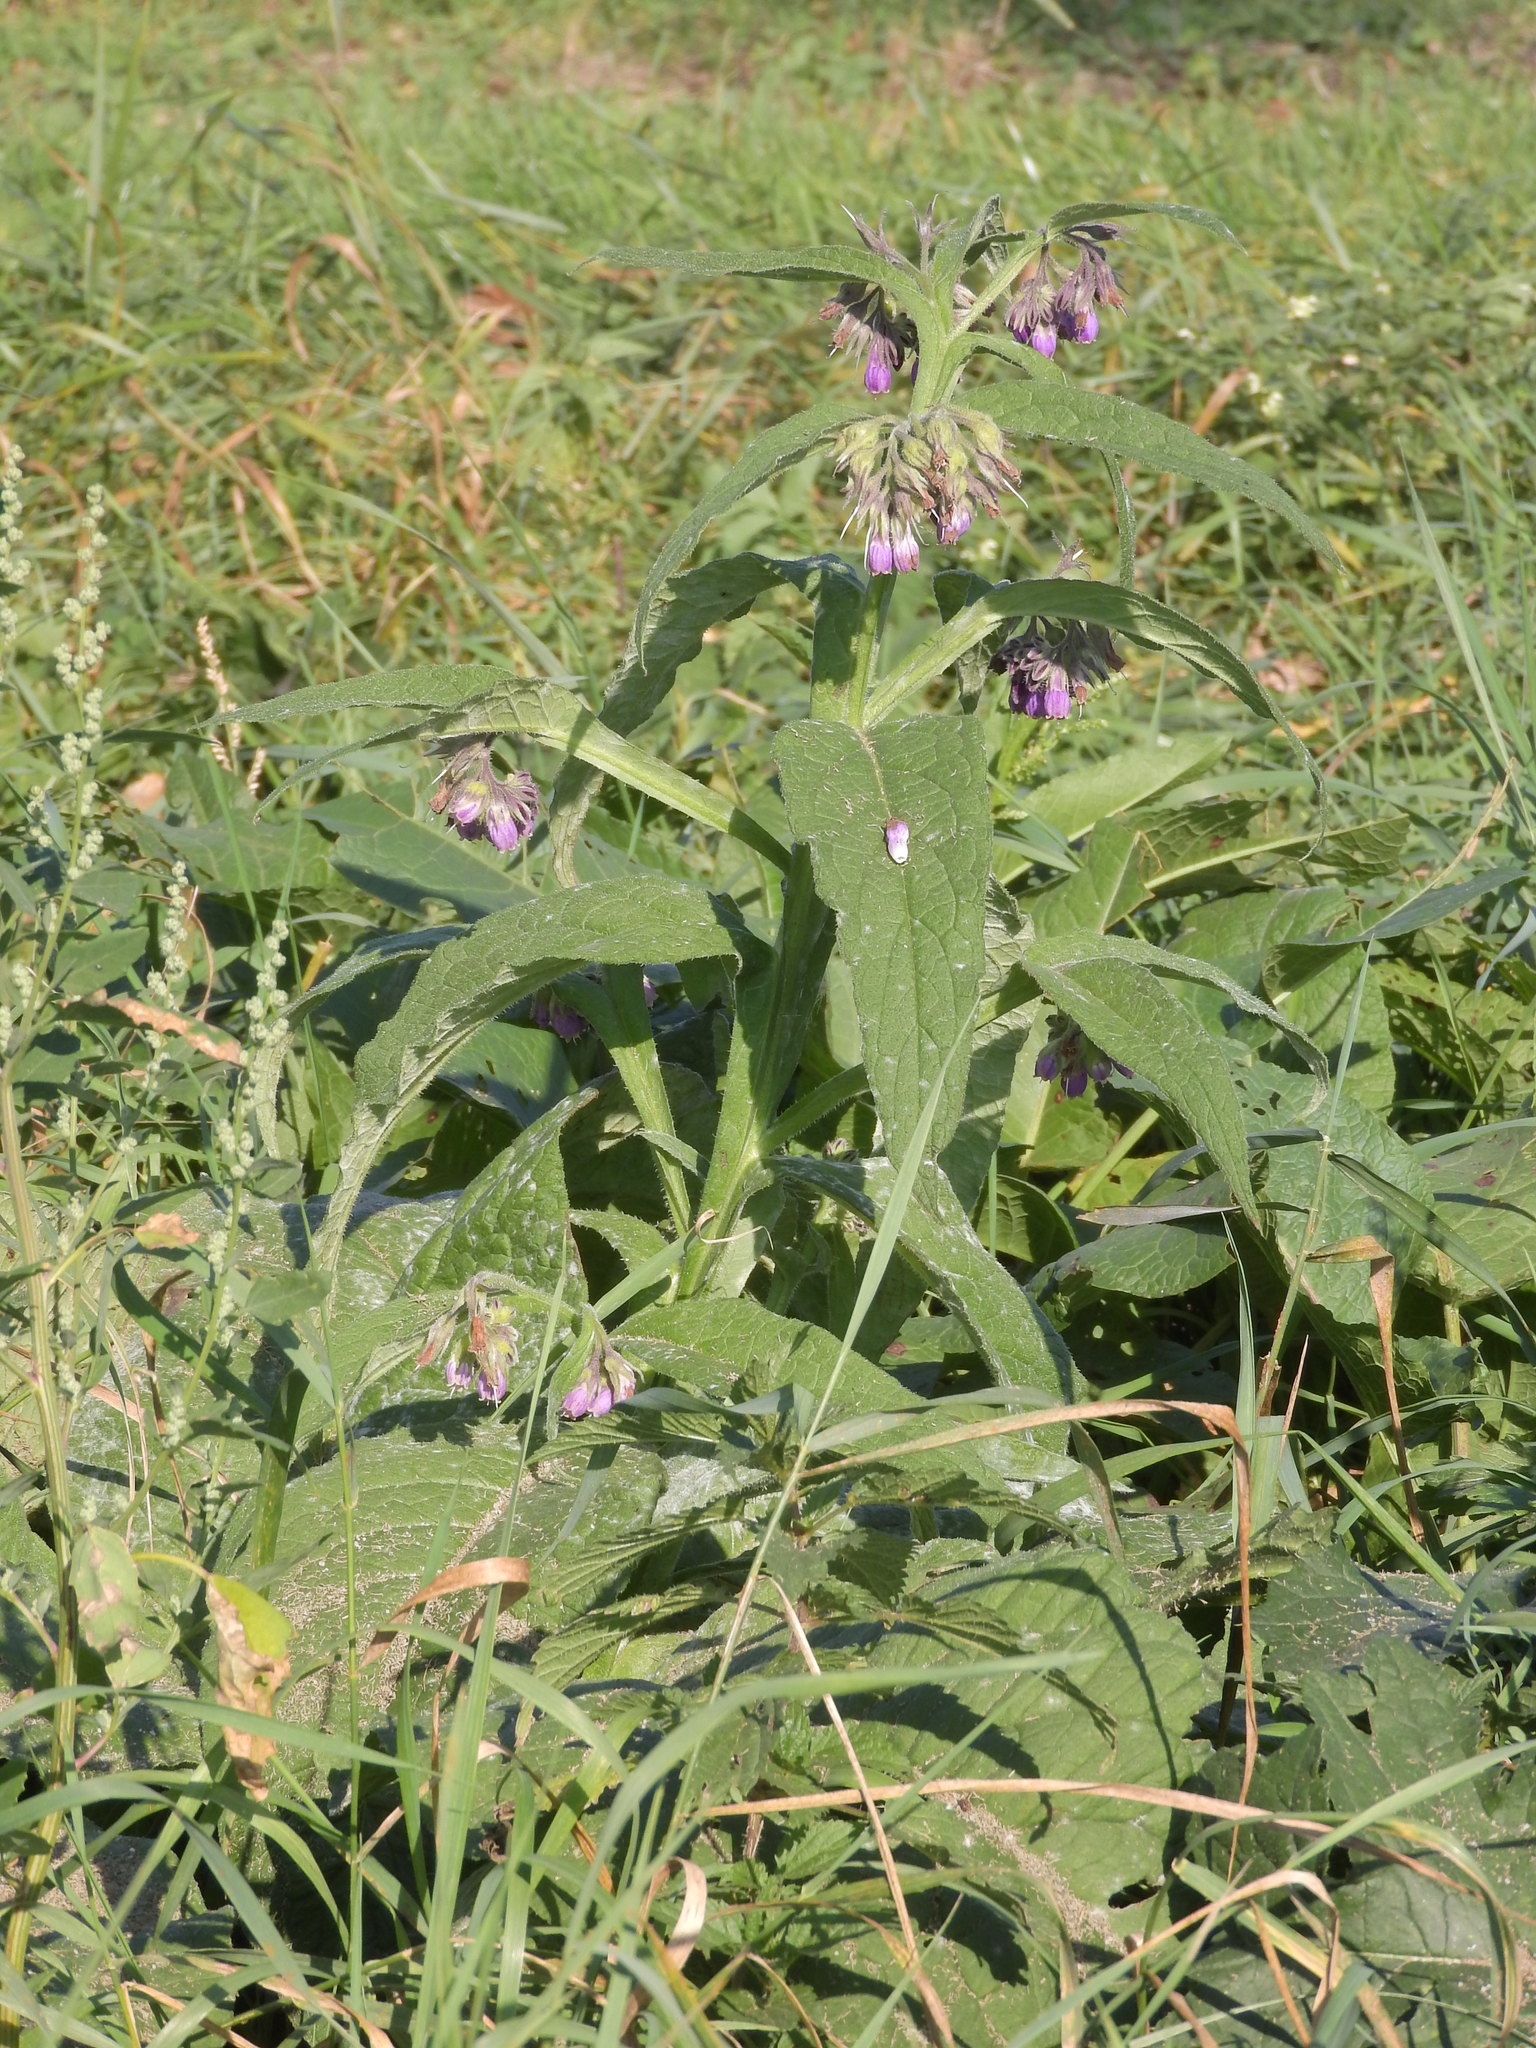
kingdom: Plantae
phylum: Tracheophyta
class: Magnoliopsida
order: Boraginales
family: Boraginaceae
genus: Symphytum
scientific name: Symphytum officinale
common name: Common comfrey
